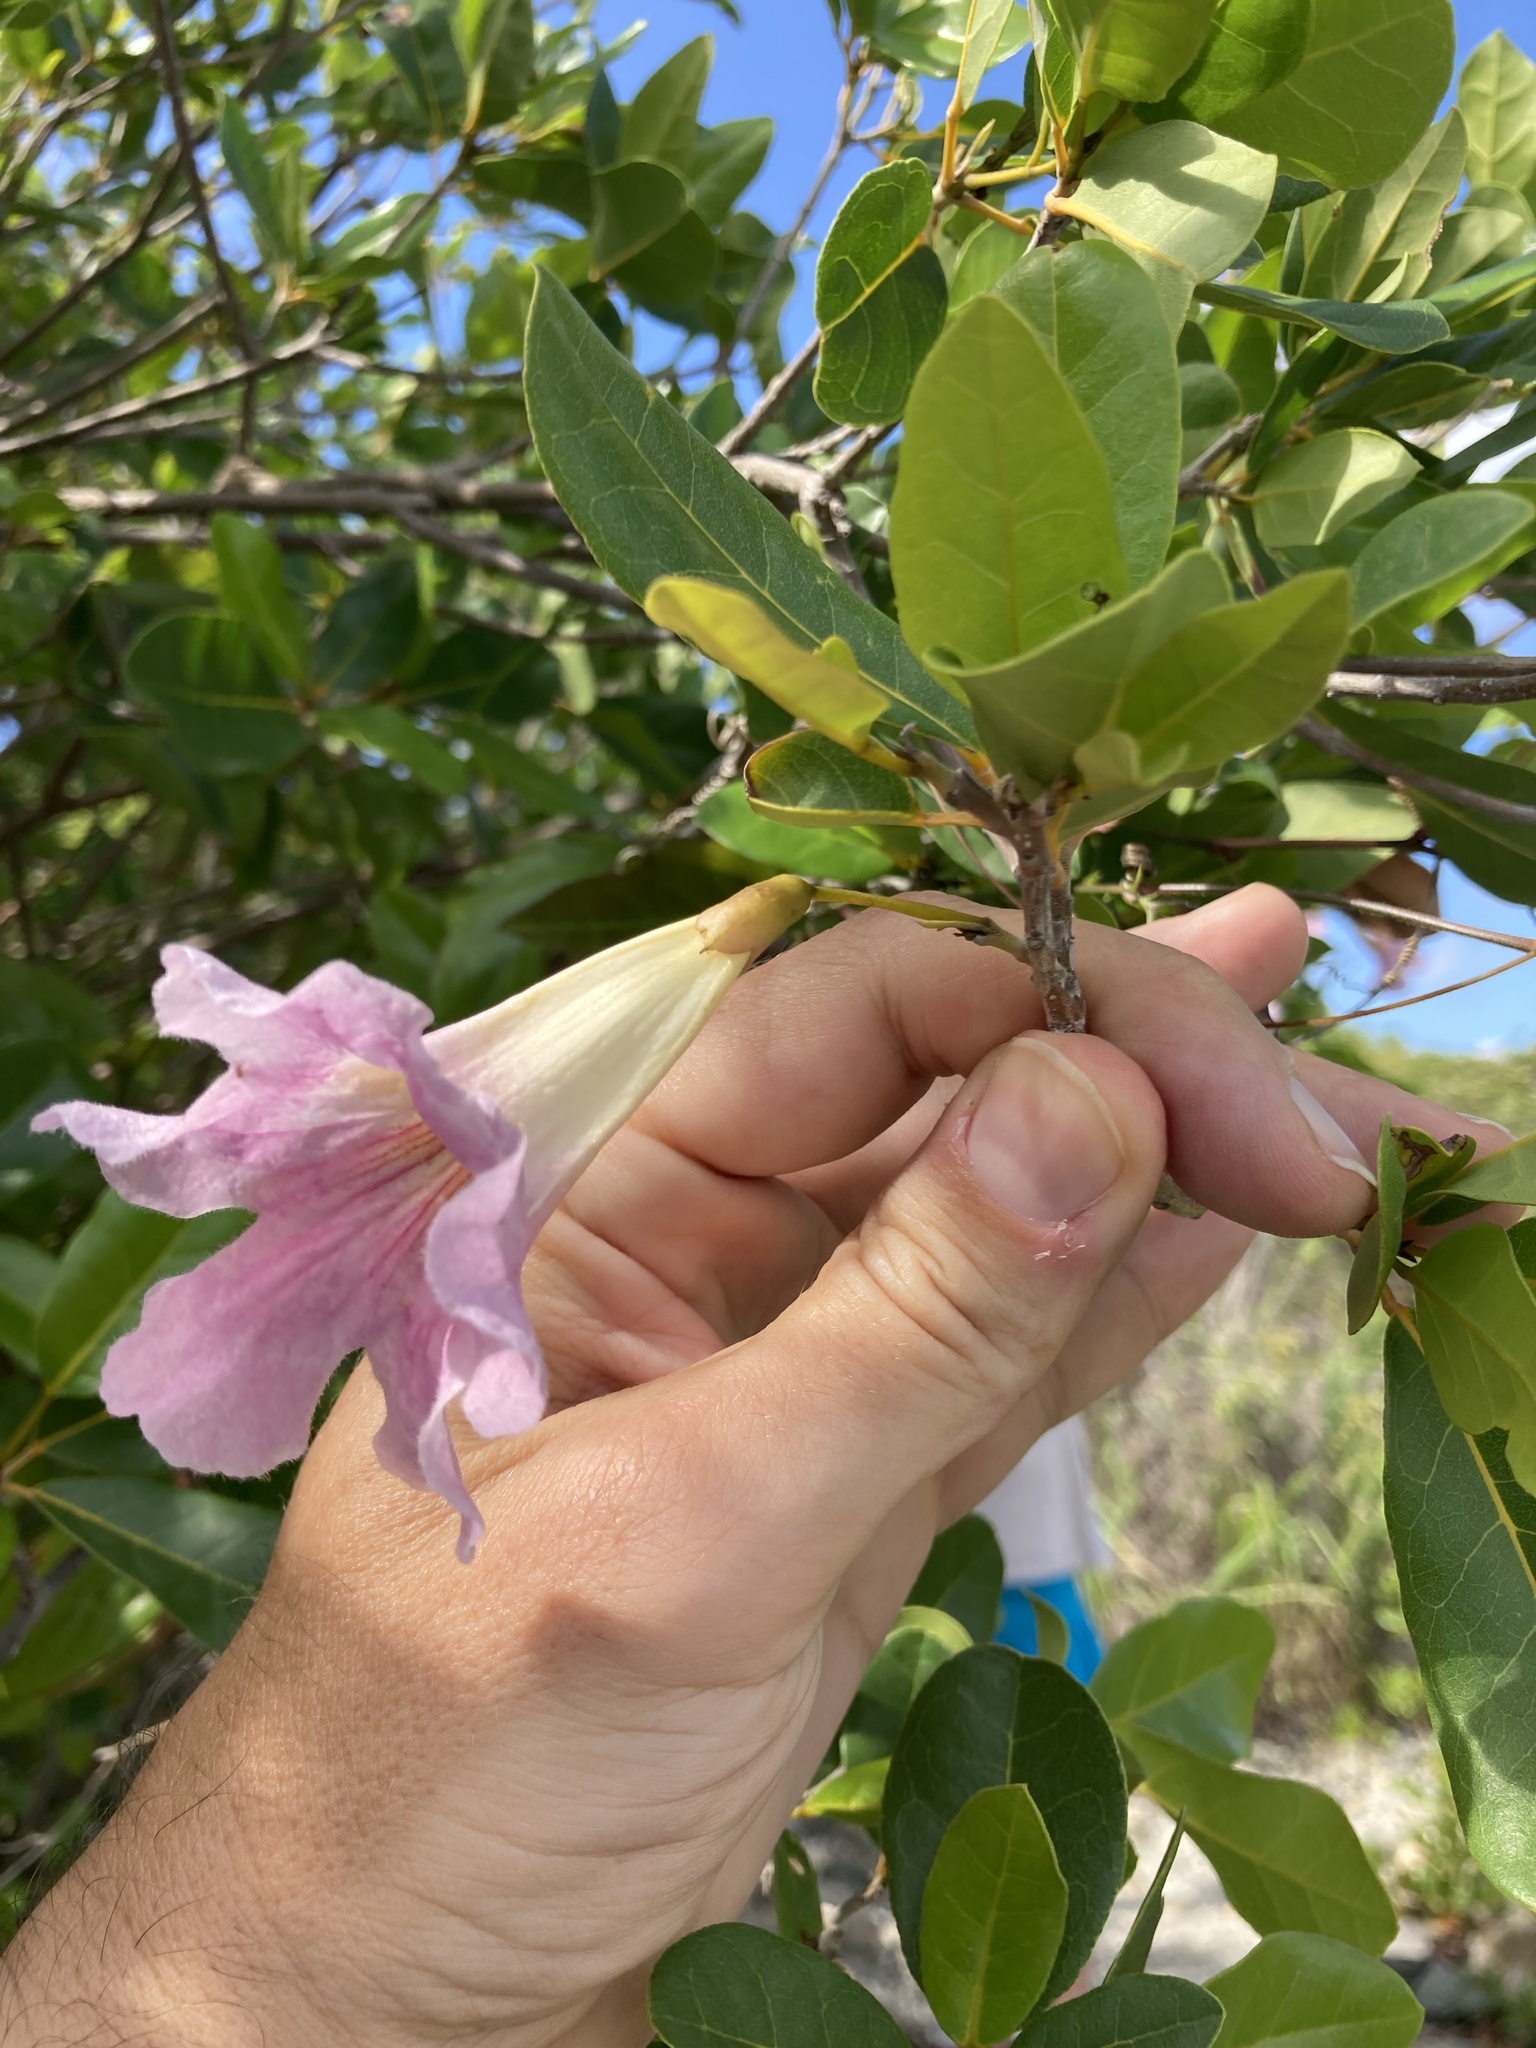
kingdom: Plantae
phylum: Tracheophyta
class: Magnoliopsida
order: Lamiales
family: Bignoniaceae
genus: Tabebuia
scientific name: Tabebuia heterophylla
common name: White cedar
